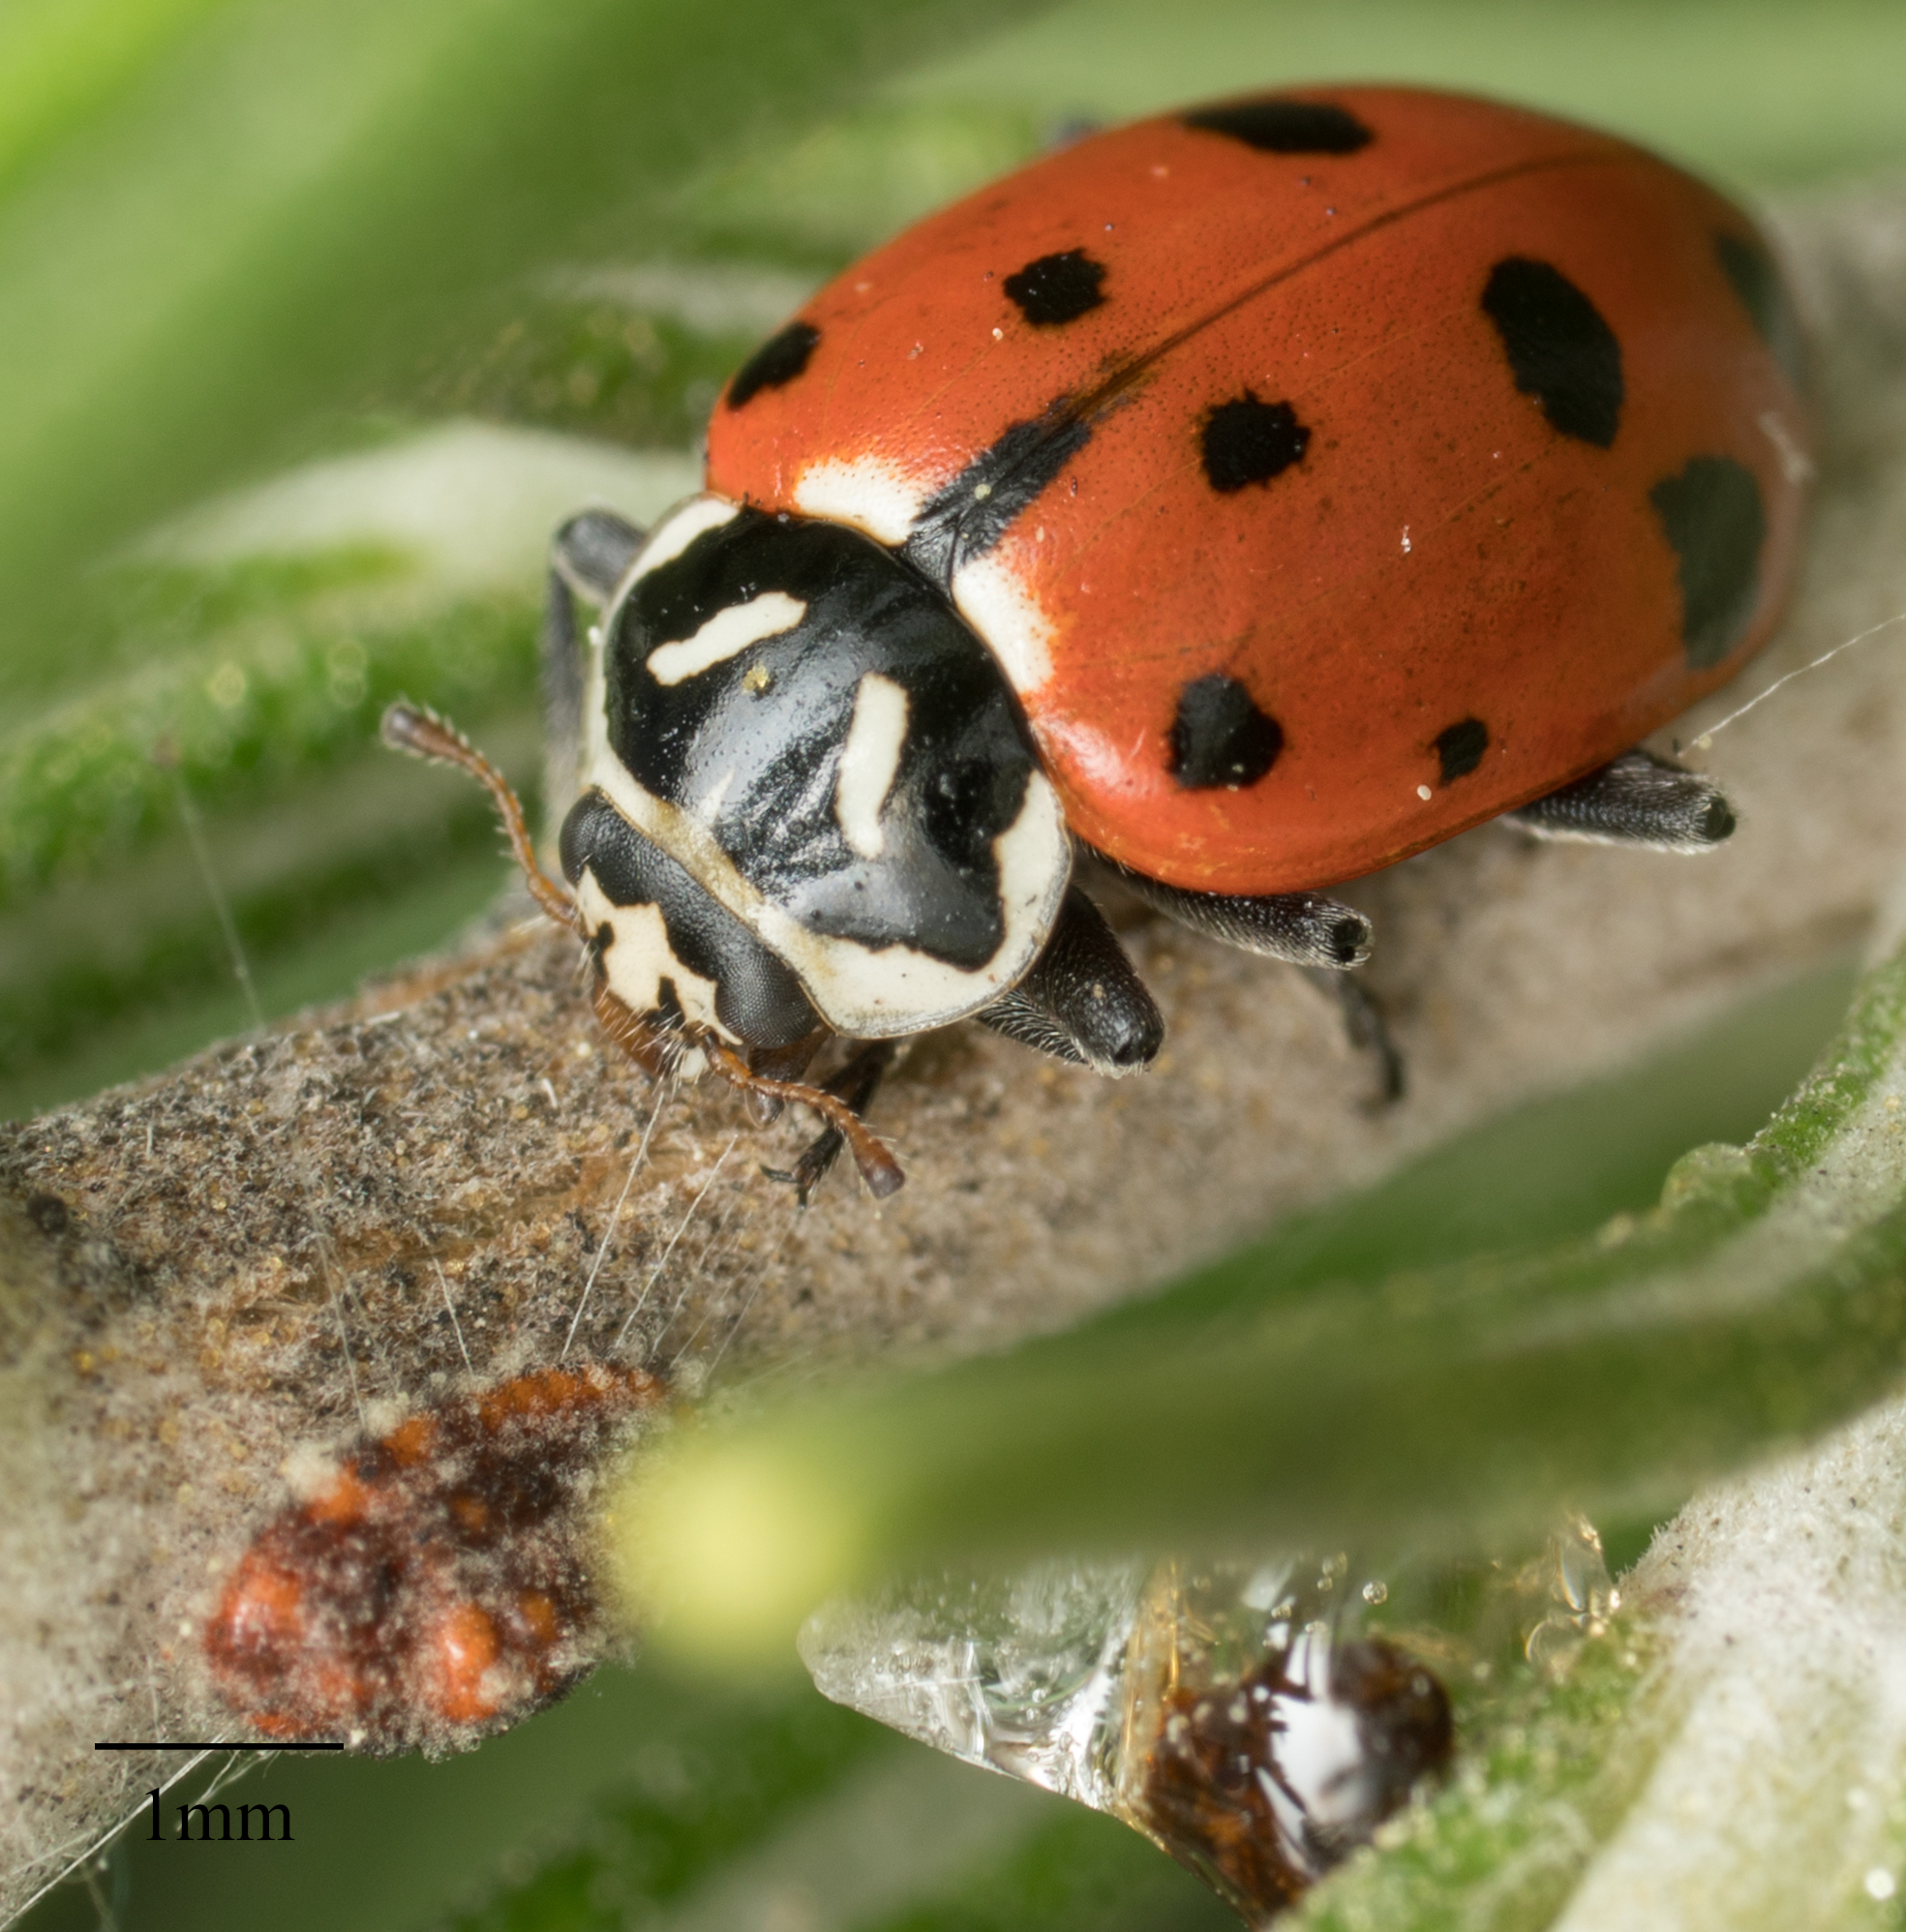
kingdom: Animalia
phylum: Arthropoda
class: Insecta
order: Coleoptera
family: Coccinellidae
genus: Hippodamia
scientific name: Hippodamia convergens
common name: Convergent lady beetle
